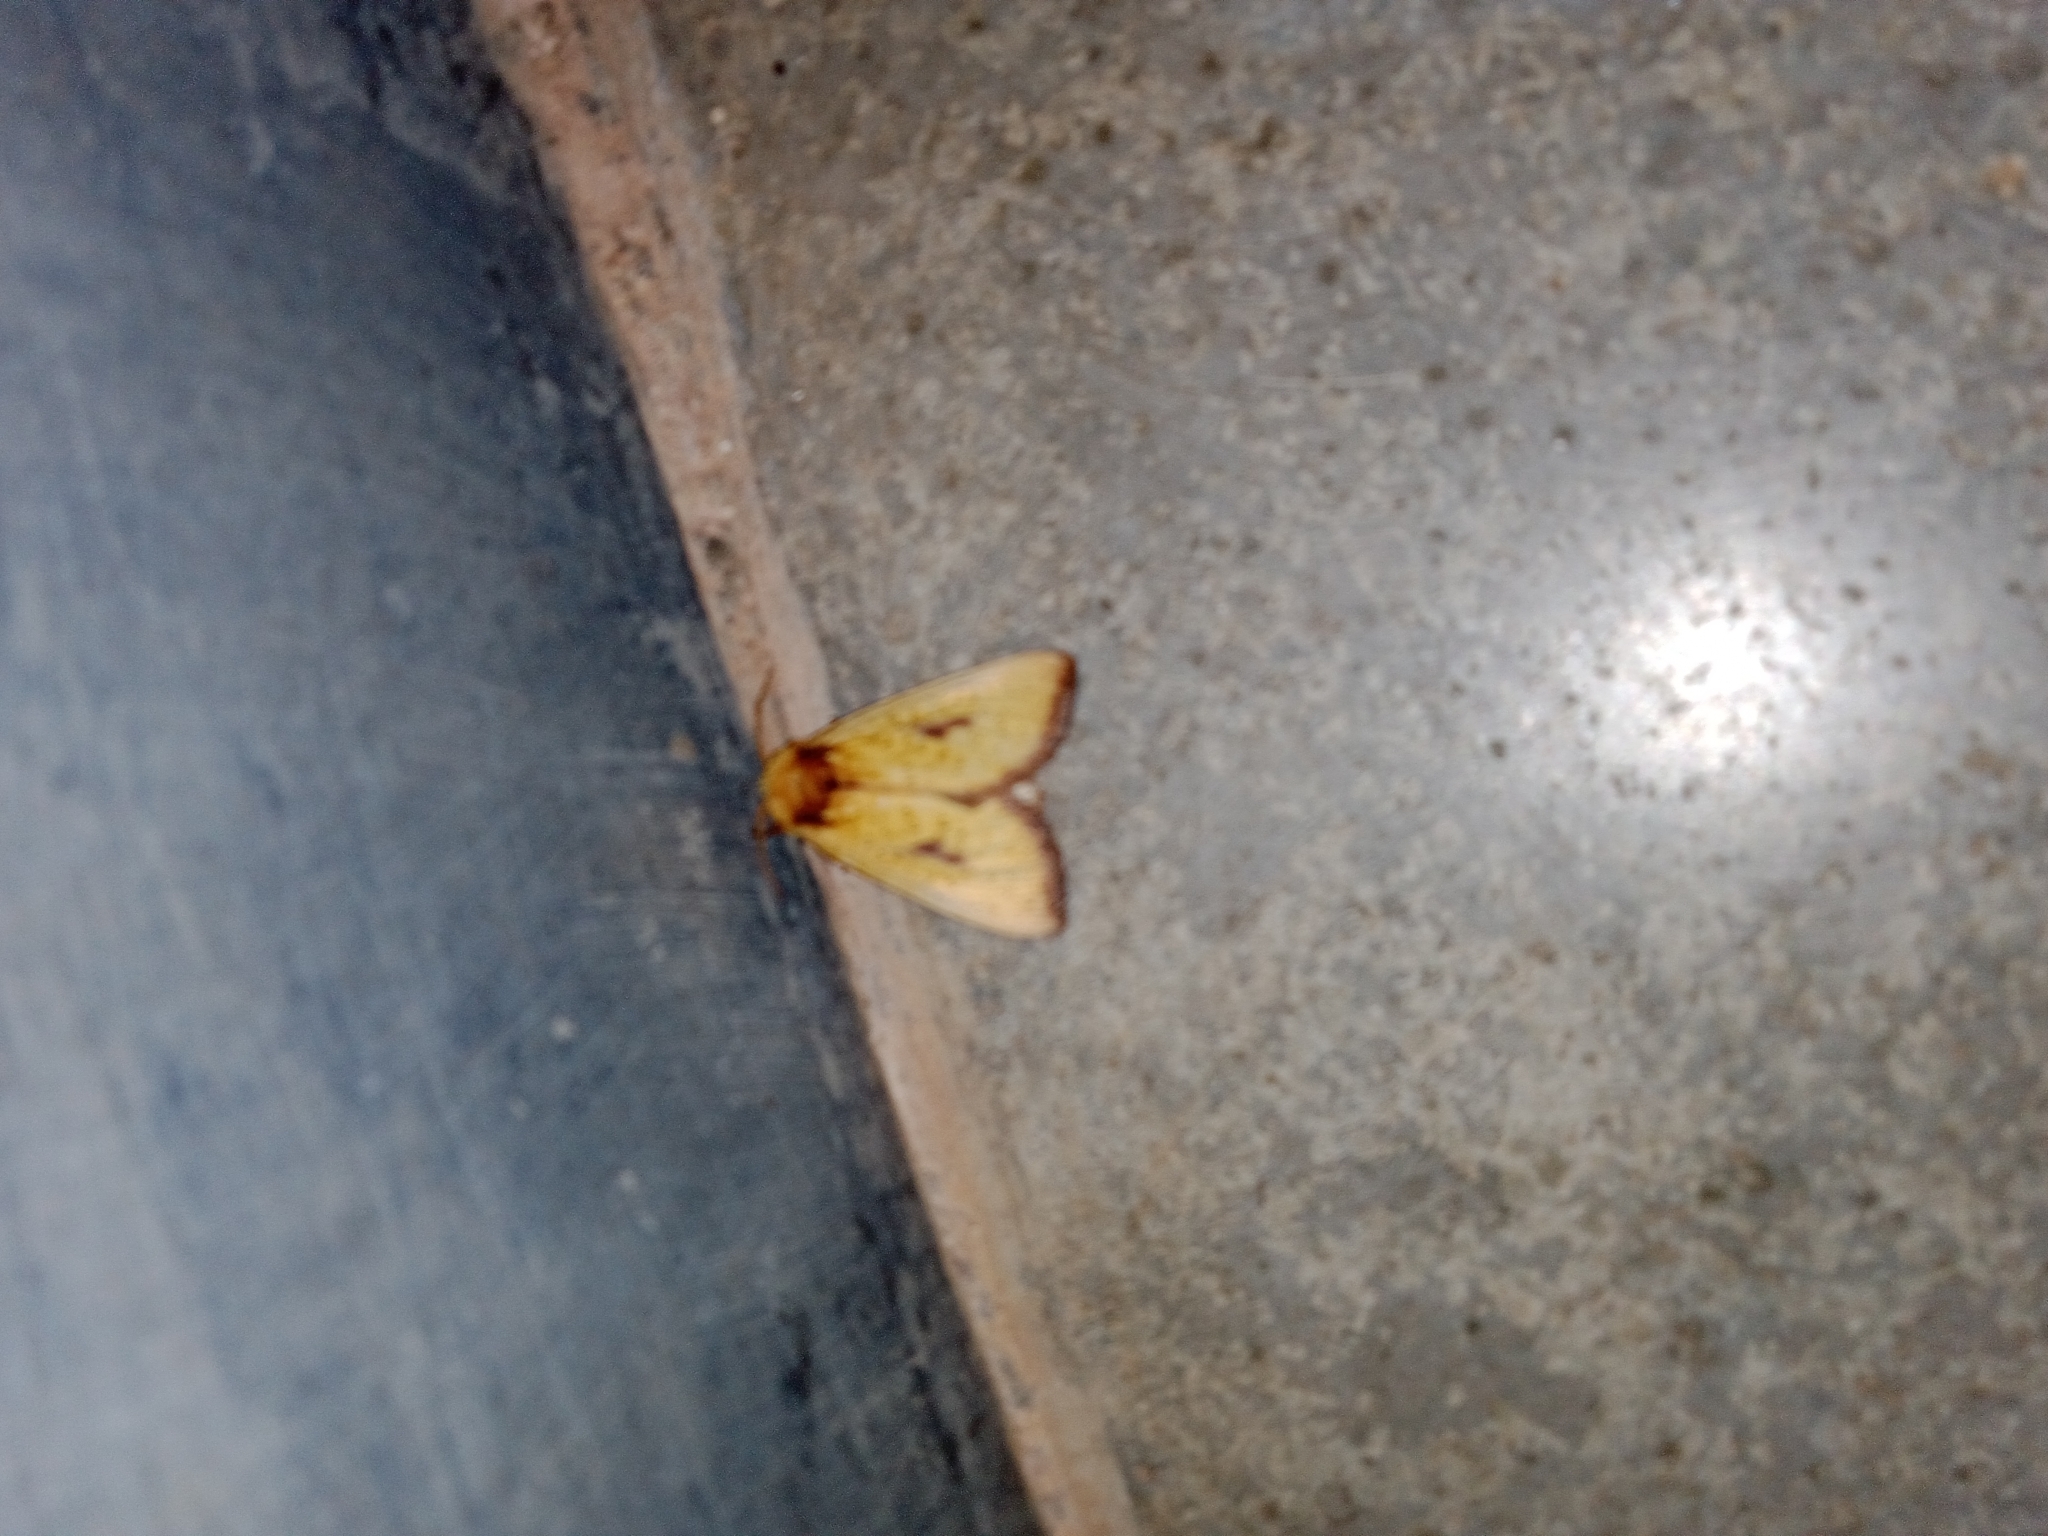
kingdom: Animalia
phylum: Arthropoda
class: Insecta
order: Lepidoptera
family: Notodontidae
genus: Antheua
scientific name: Antheua servula
